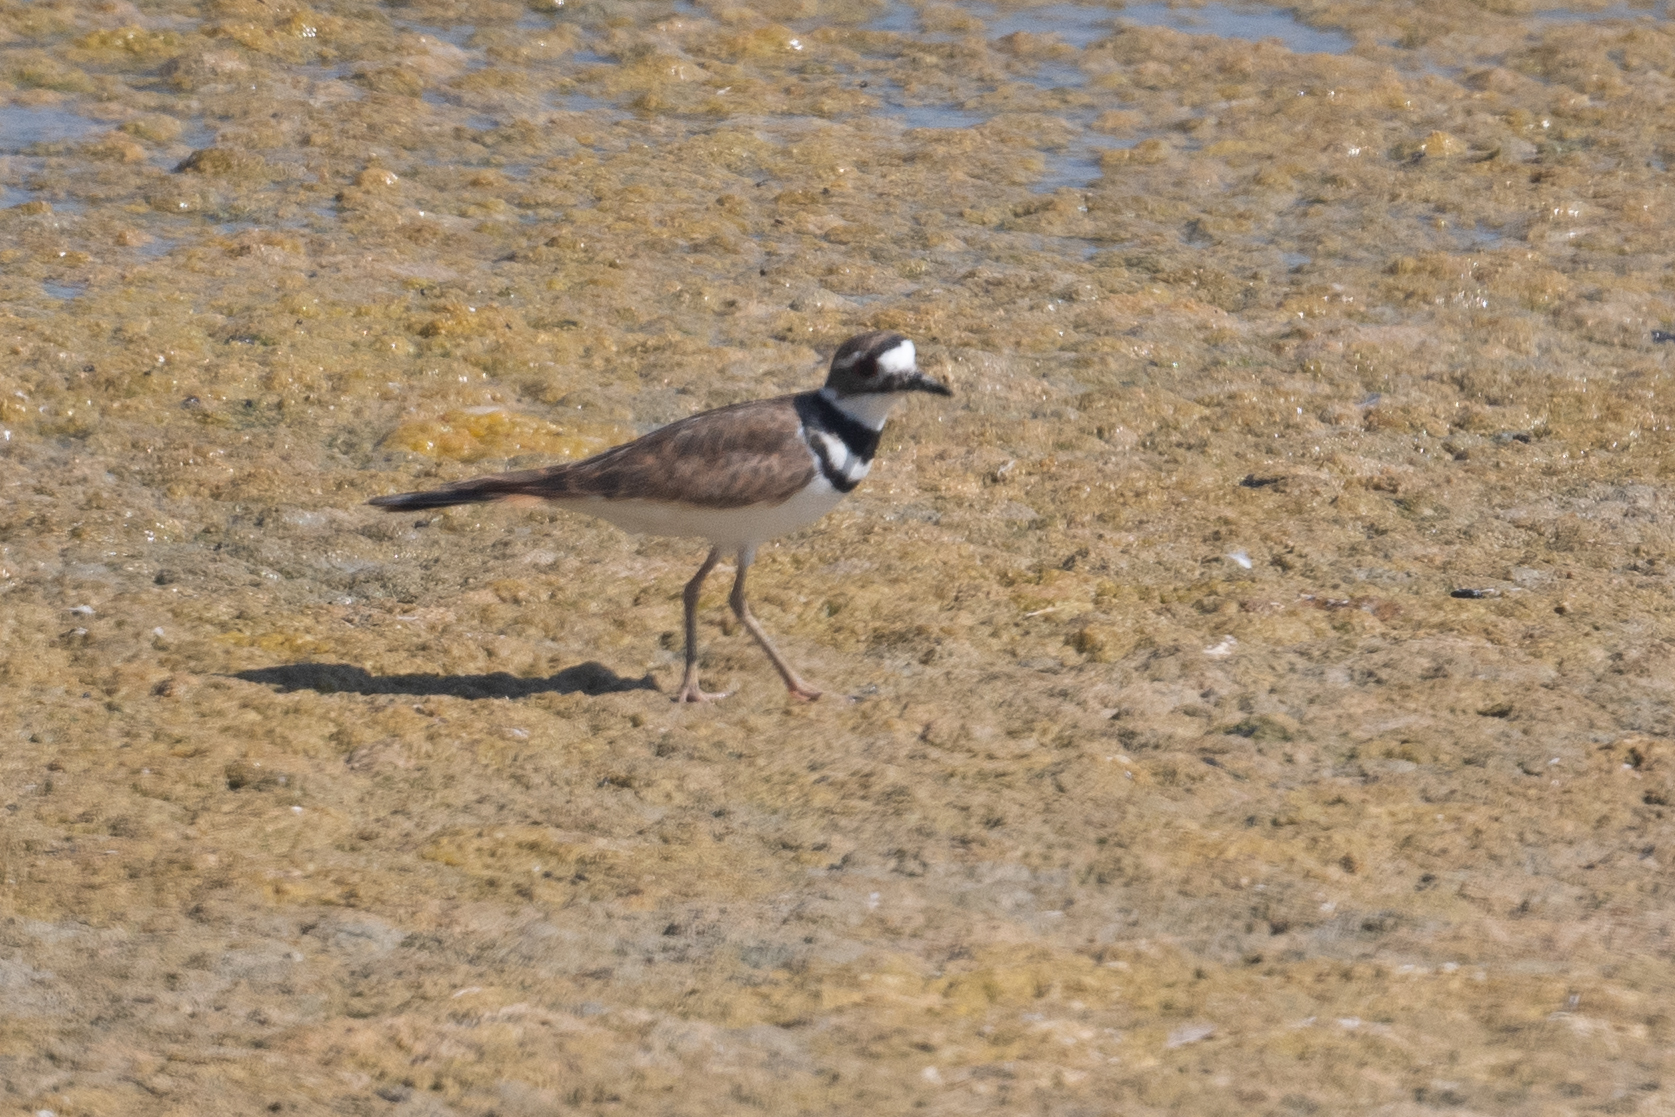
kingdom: Animalia
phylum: Chordata
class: Aves
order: Charadriiformes
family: Charadriidae
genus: Charadrius
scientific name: Charadrius vociferus
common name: Killdeer
